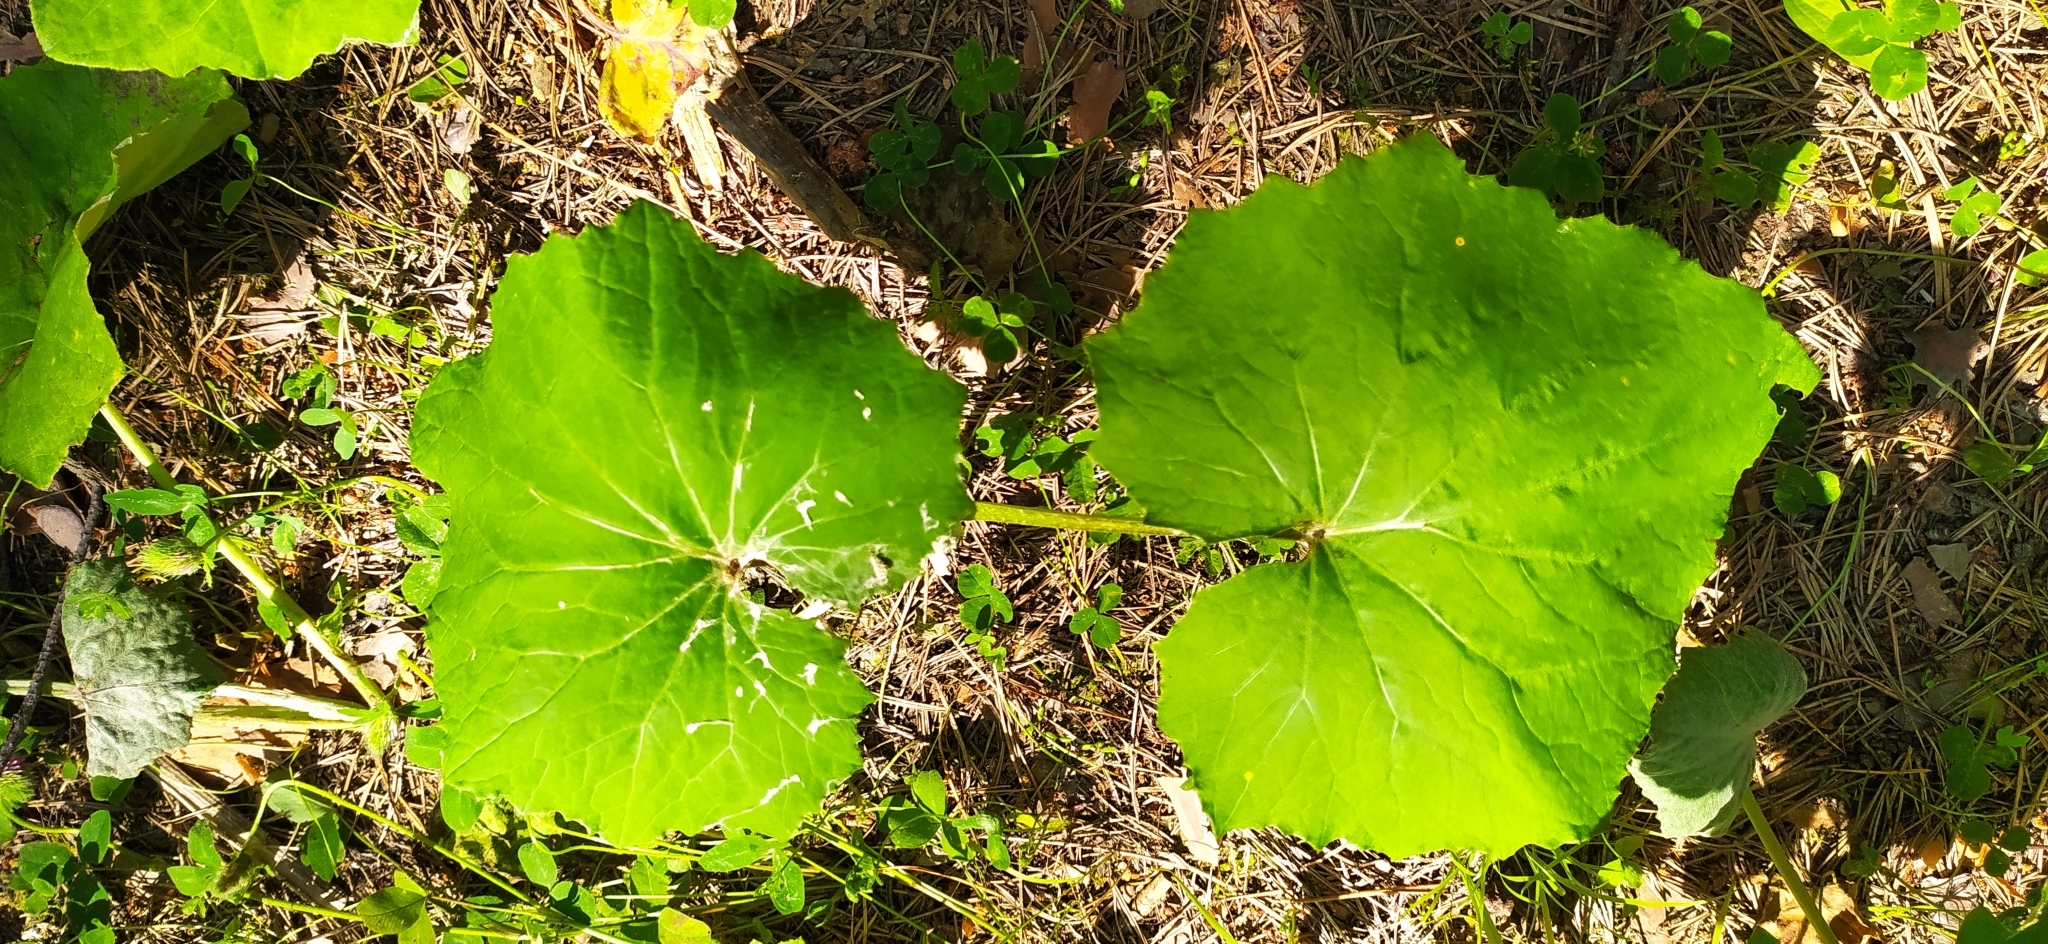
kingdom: Plantae
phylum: Tracheophyta
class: Magnoliopsida
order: Asterales
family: Asteraceae
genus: Tussilago
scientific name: Tussilago farfara
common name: Coltsfoot
